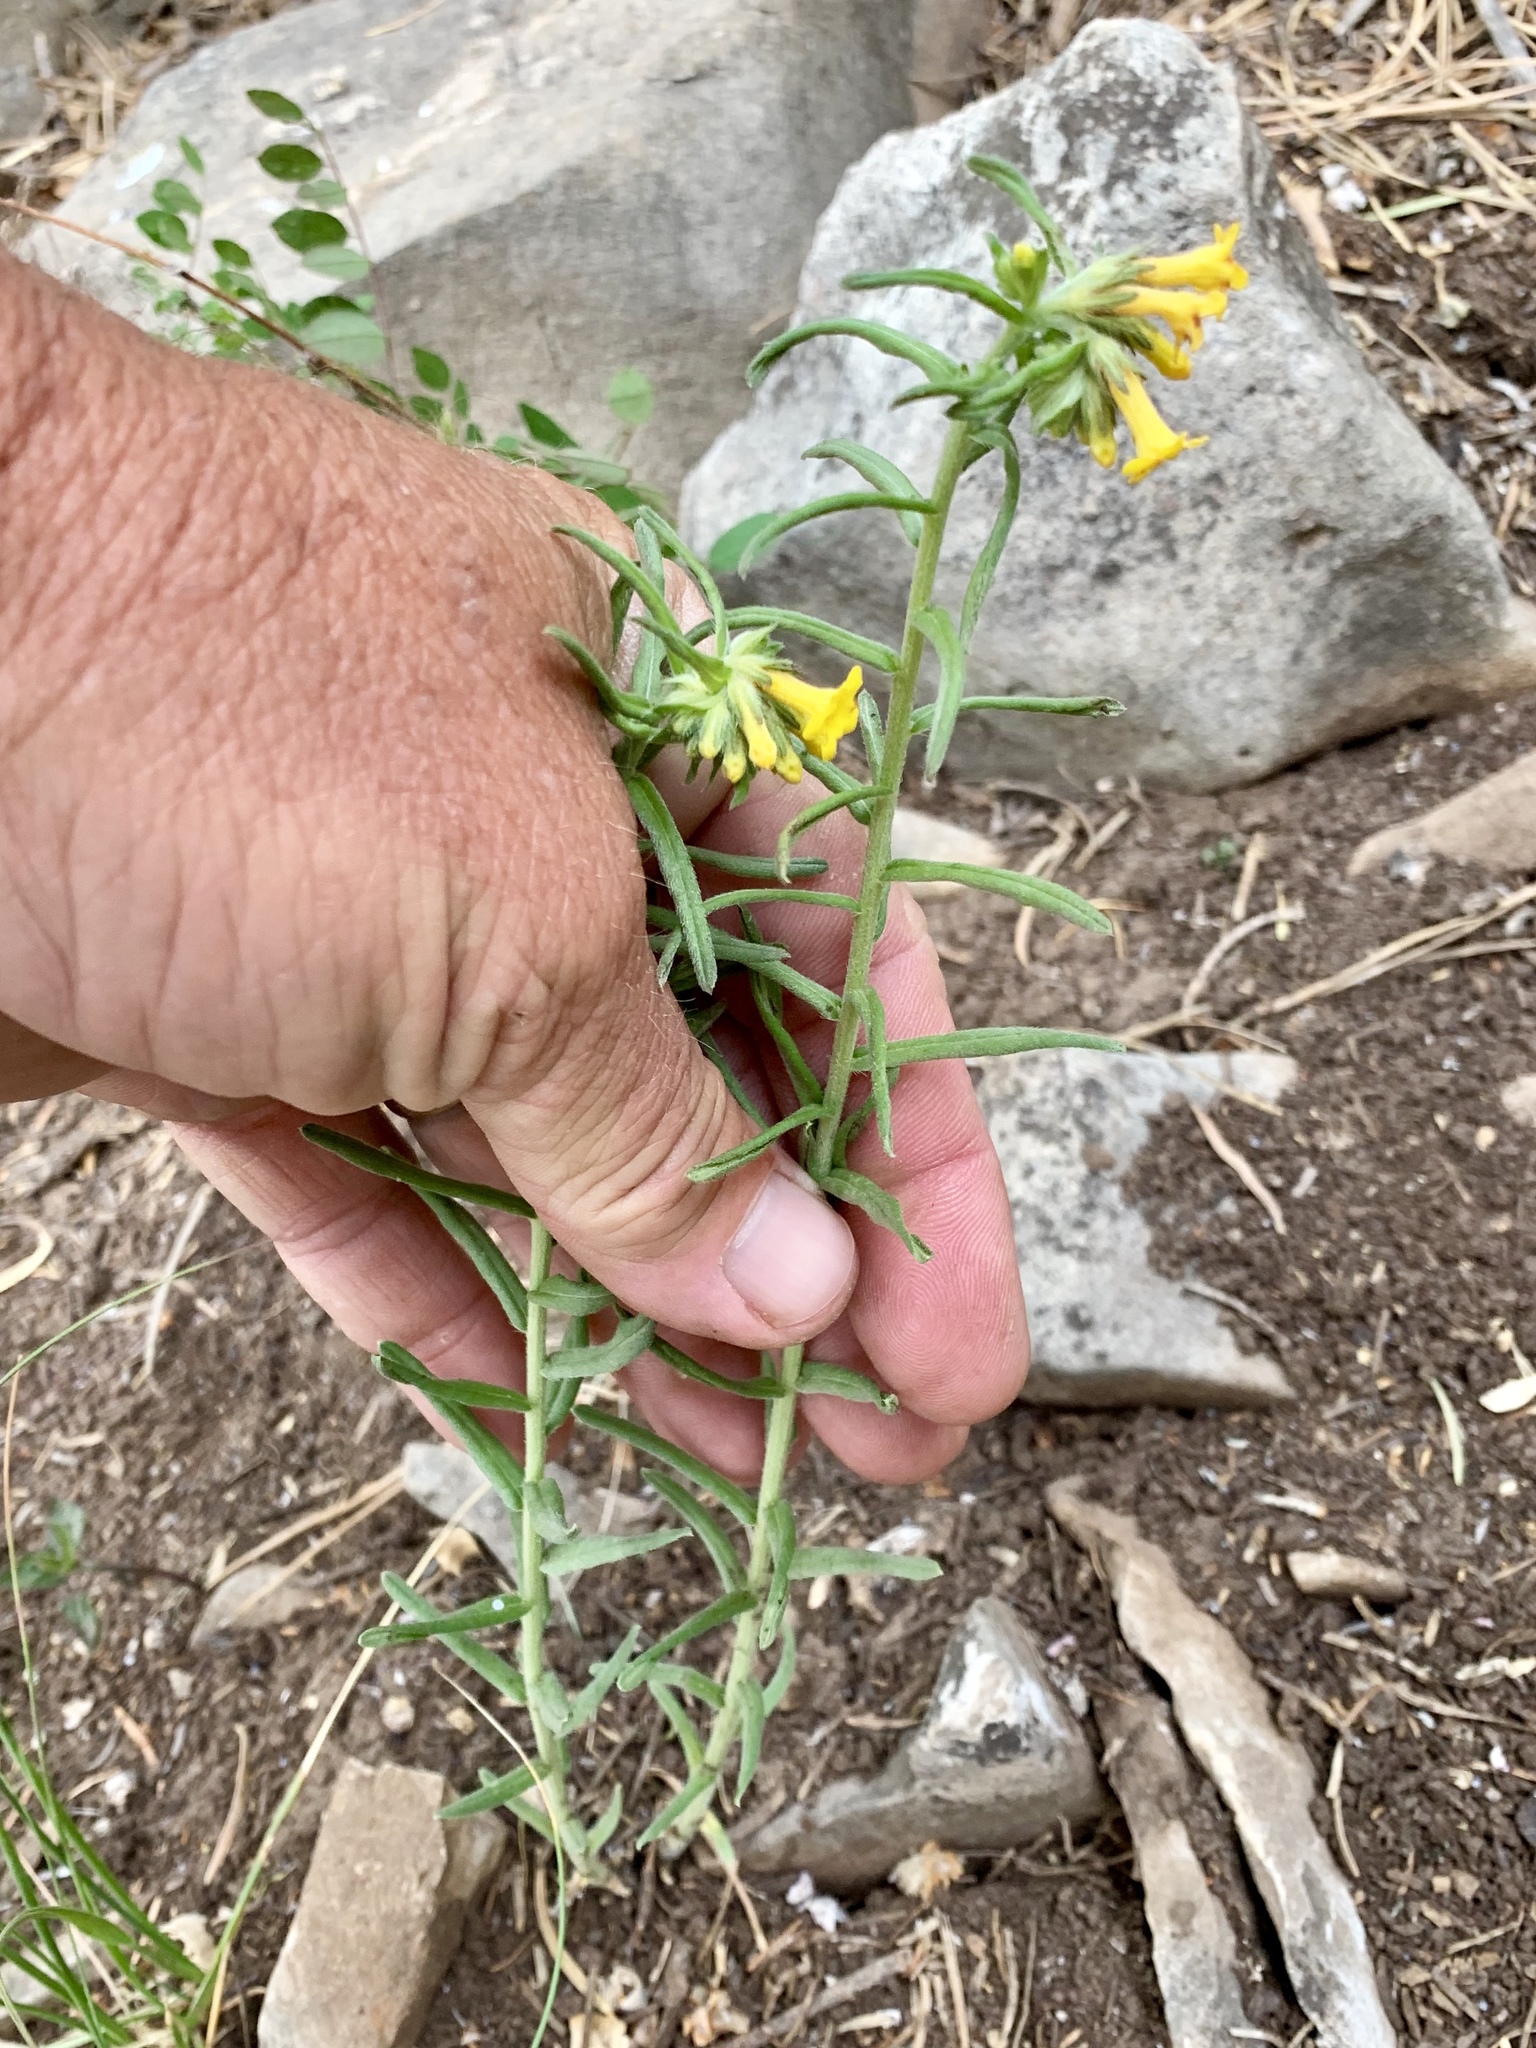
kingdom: Plantae
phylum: Tracheophyta
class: Magnoliopsida
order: Boraginales
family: Boraginaceae
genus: Lithospermum
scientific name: Lithospermum multiflorum
